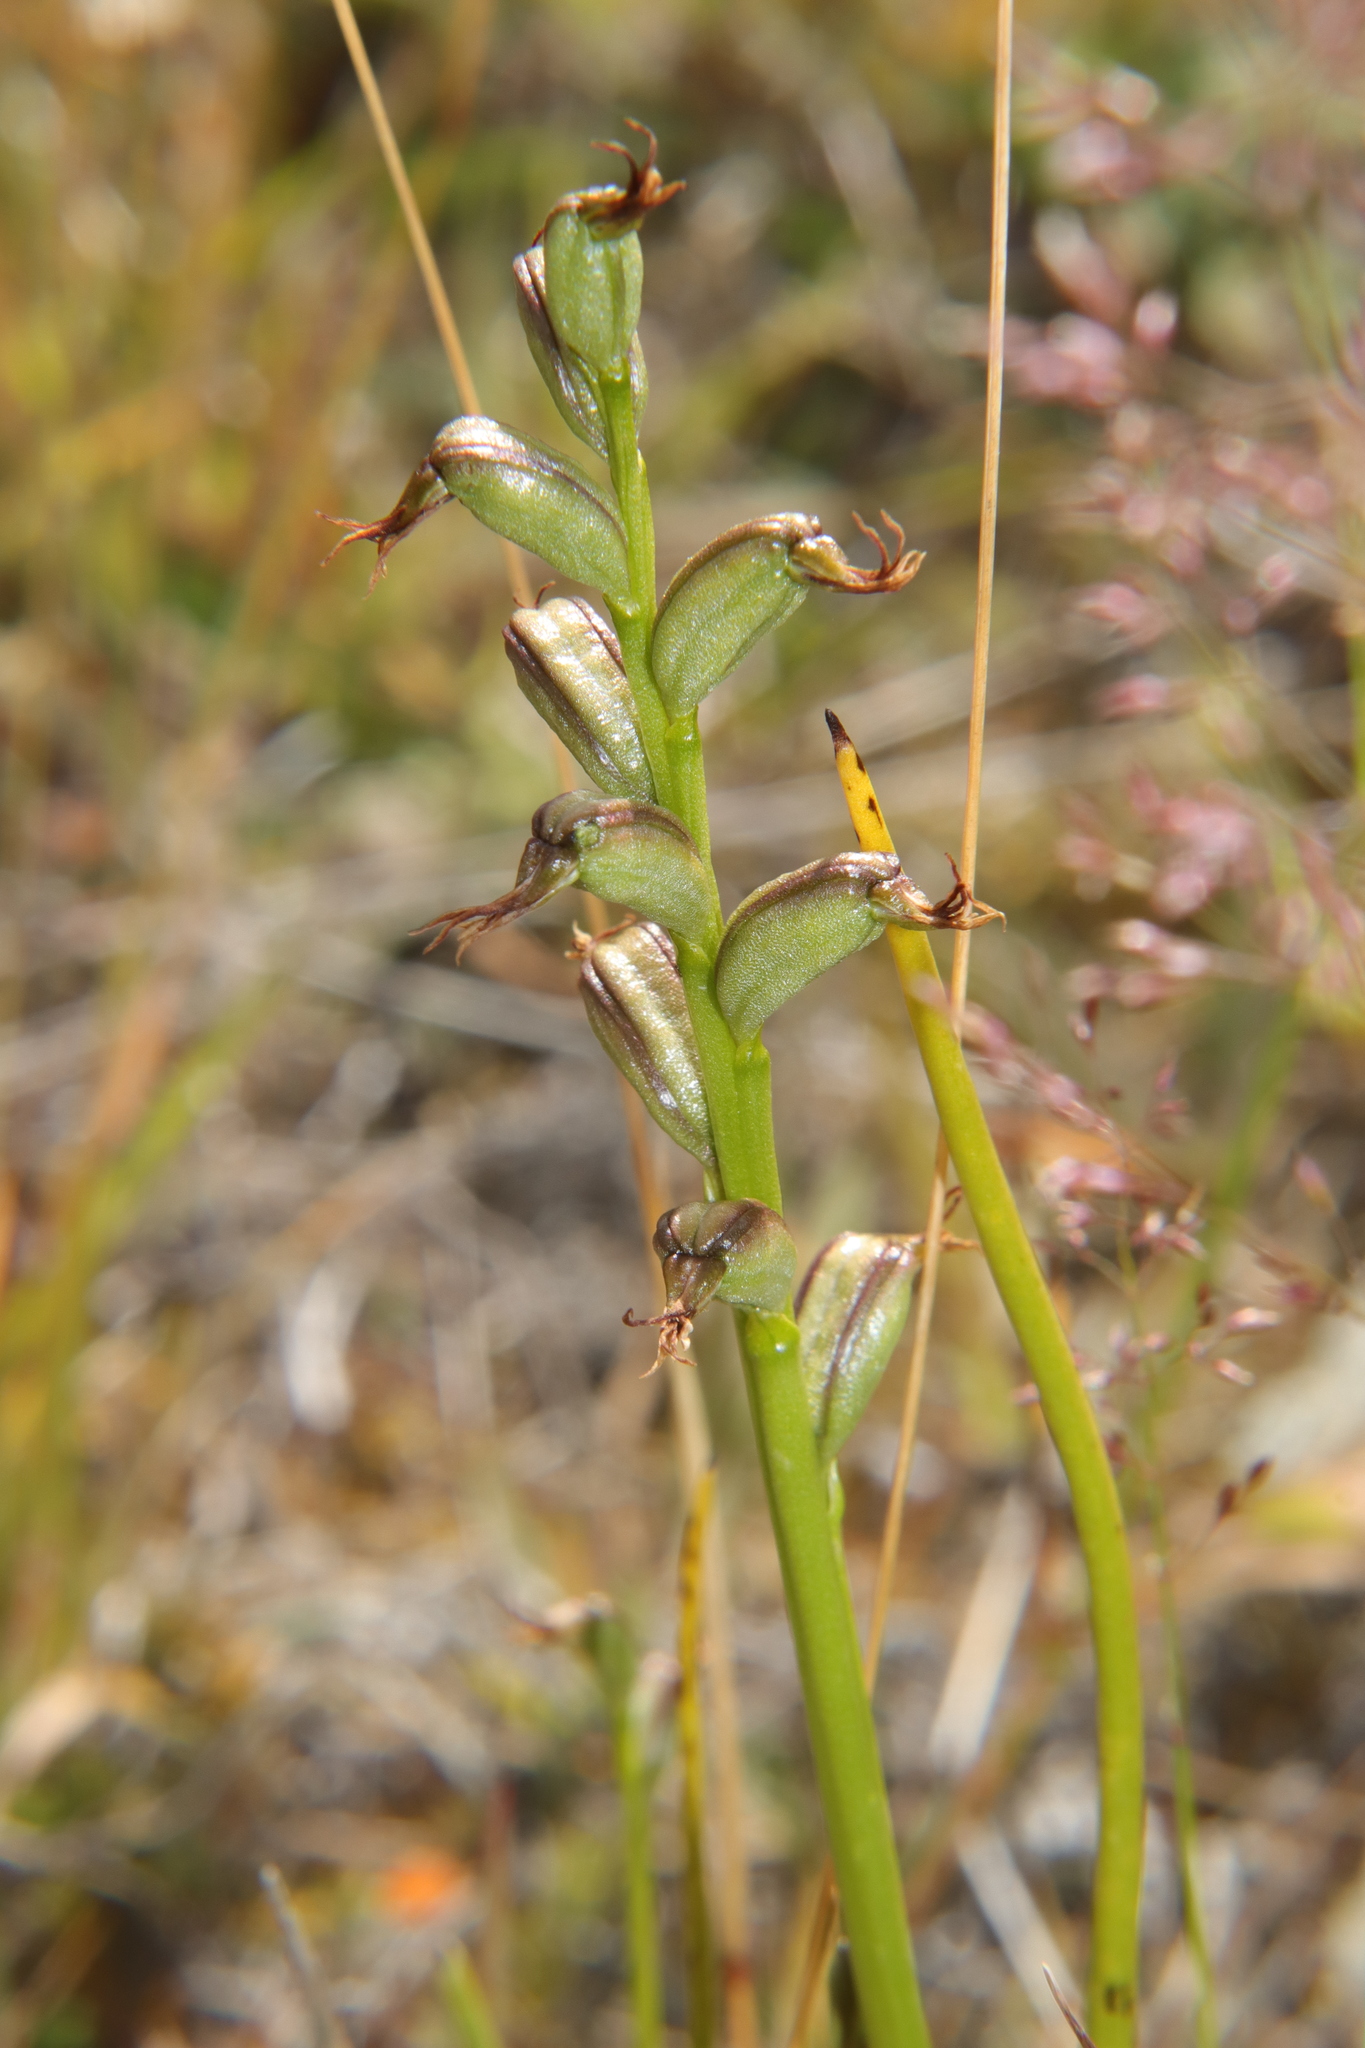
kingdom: Plantae
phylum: Tracheophyta
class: Liliopsida
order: Asparagales
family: Orchidaceae
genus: Prasophyllum
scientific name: Prasophyllum colensoi
